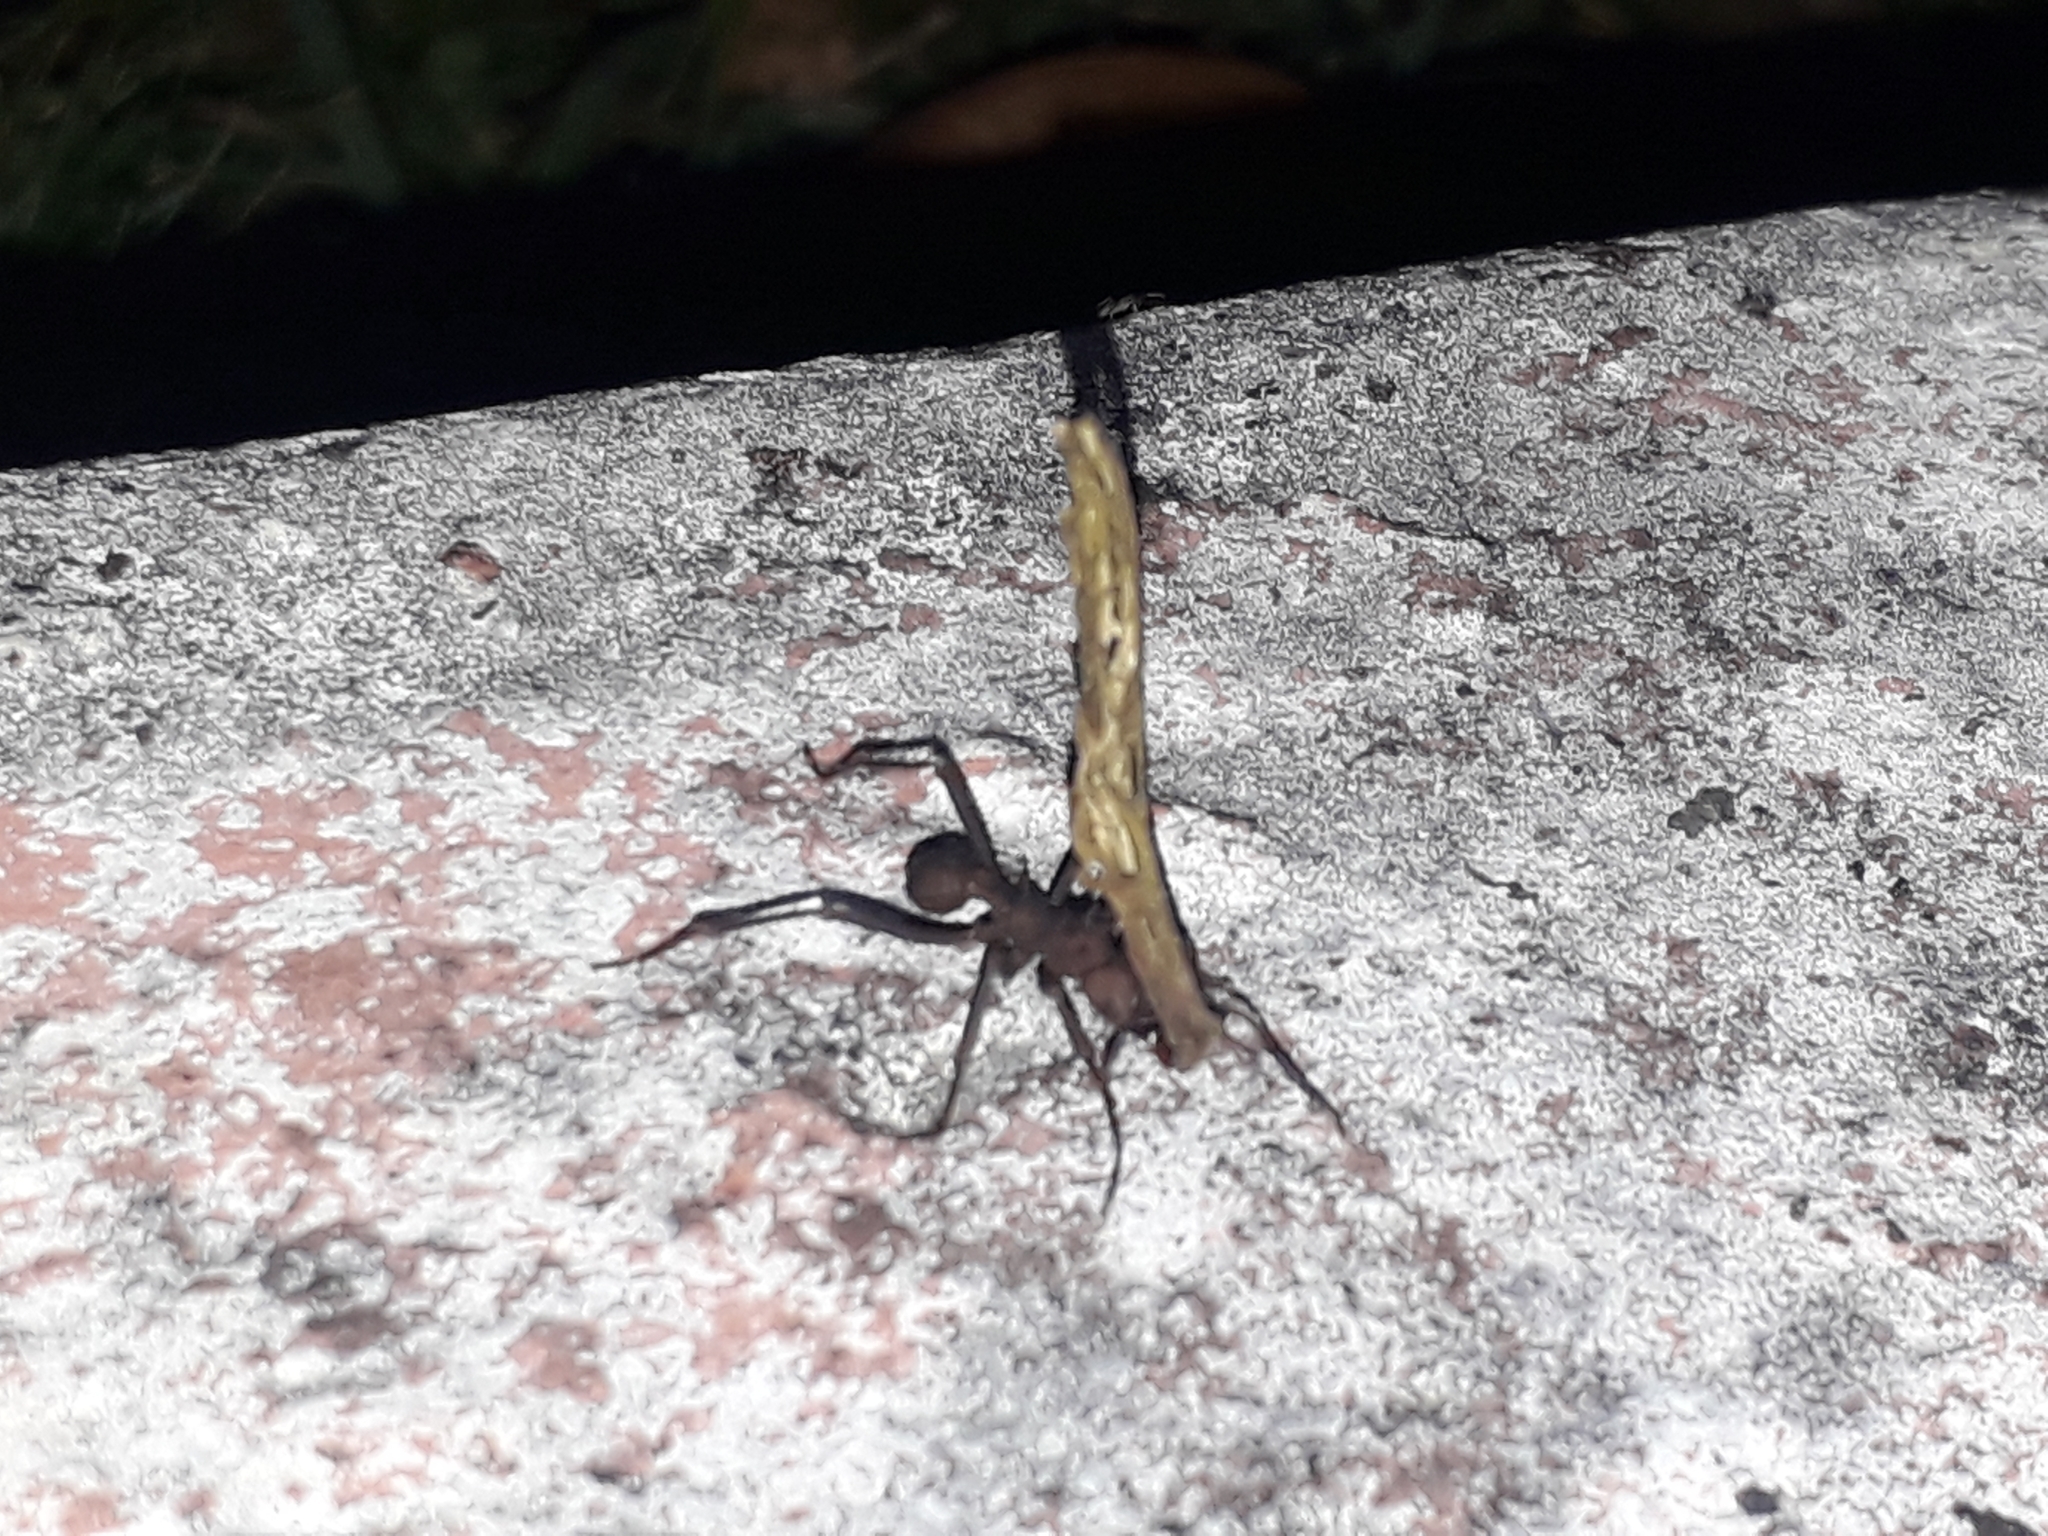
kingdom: Animalia
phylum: Arthropoda
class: Insecta
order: Hymenoptera
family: Formicidae
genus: Acromyrmex
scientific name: Acromyrmex octospinosus
